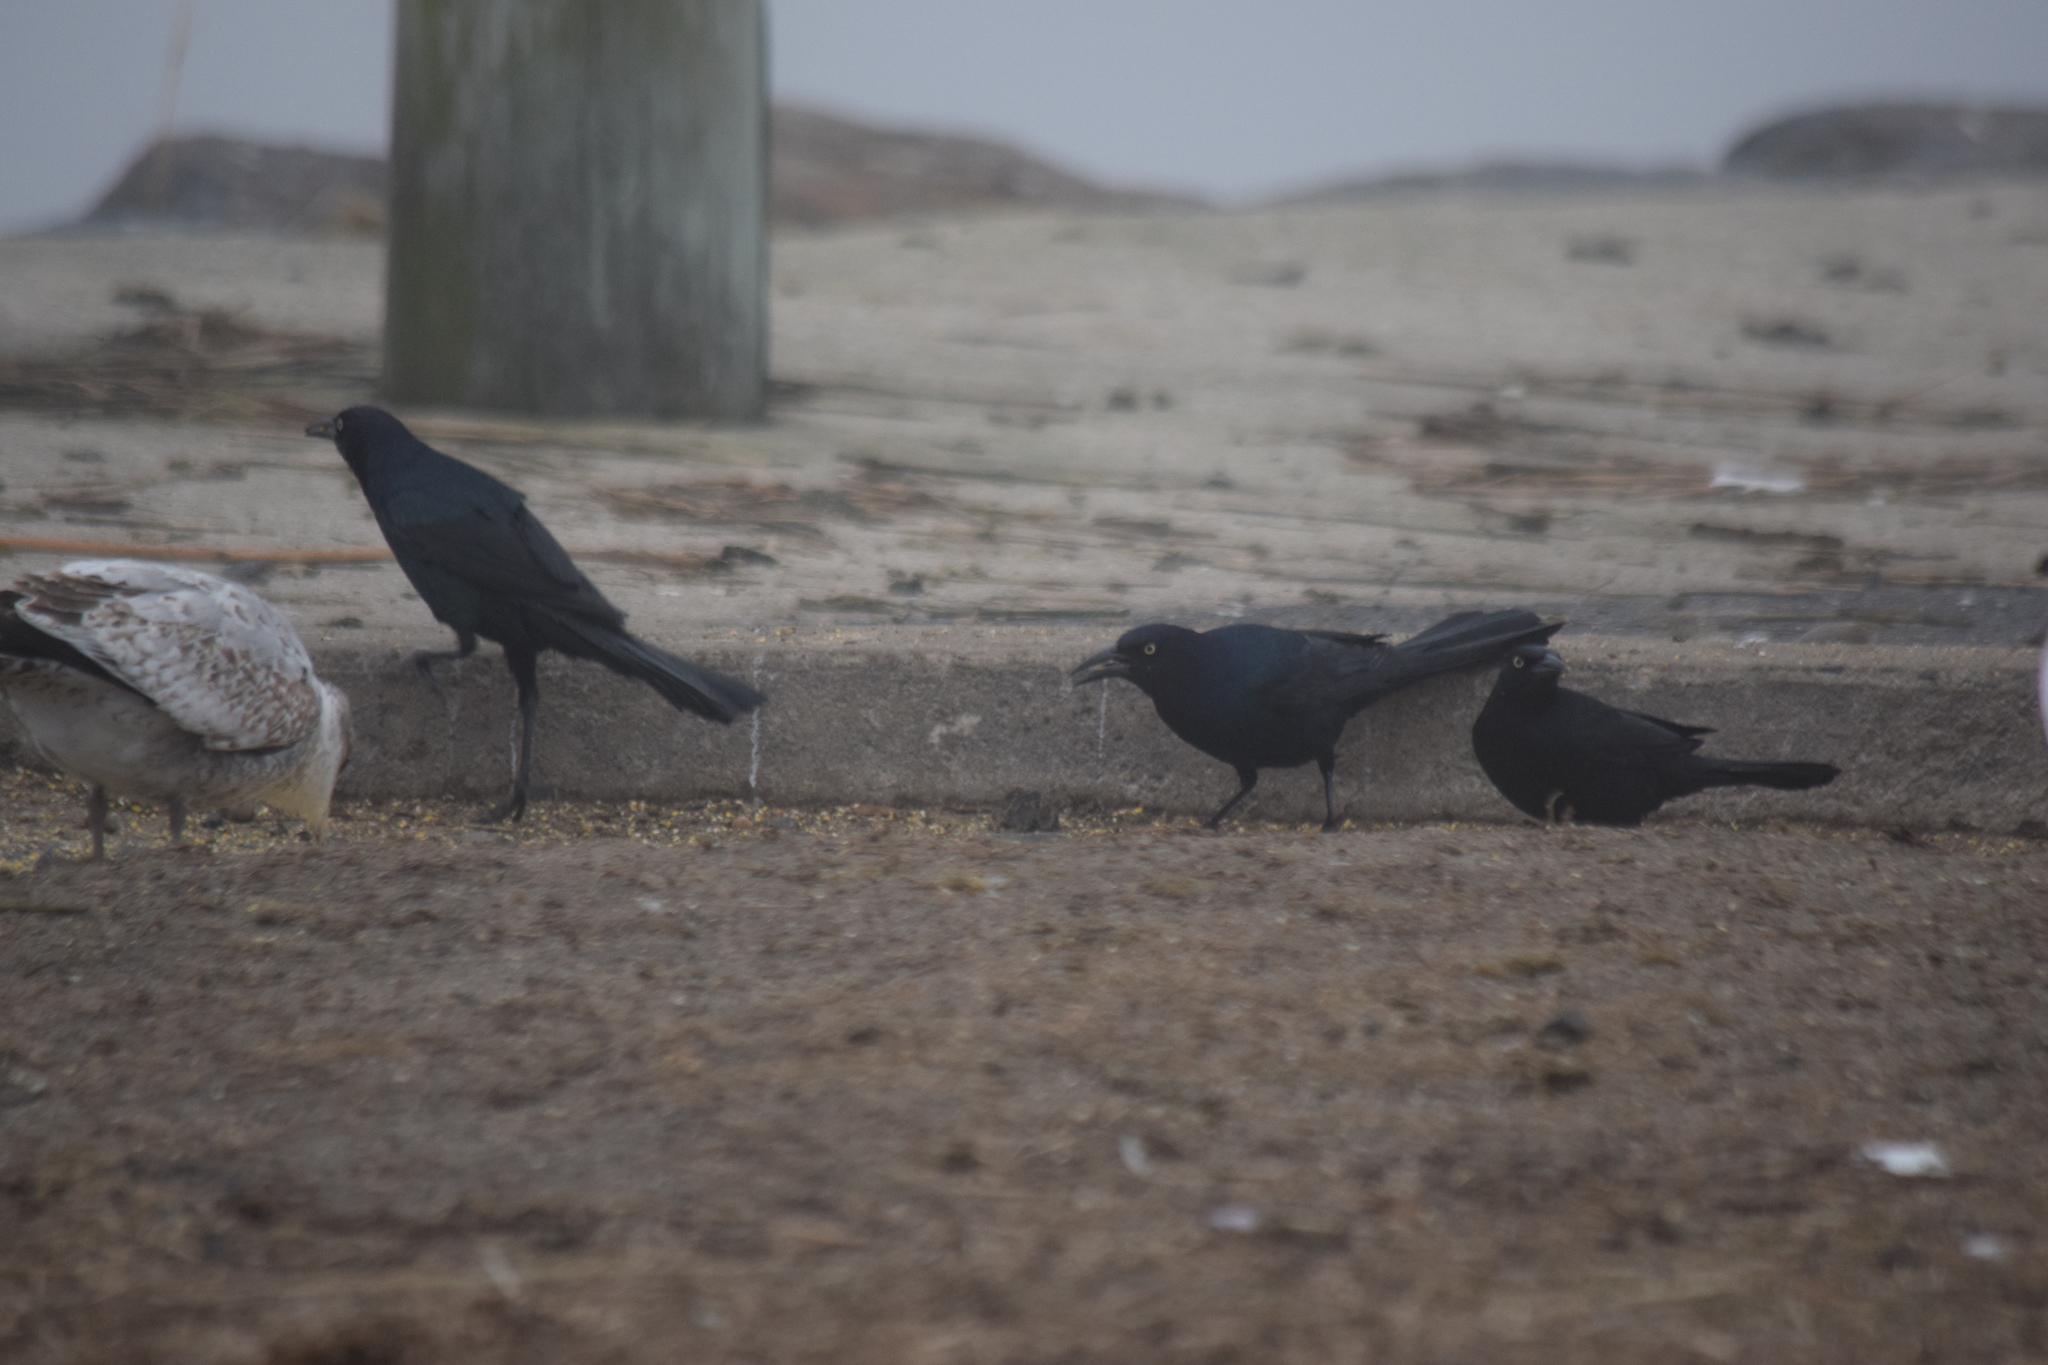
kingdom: Animalia
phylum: Chordata
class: Aves
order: Passeriformes
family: Icteridae
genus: Quiscalus
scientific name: Quiscalus major
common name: Boat-tailed grackle
